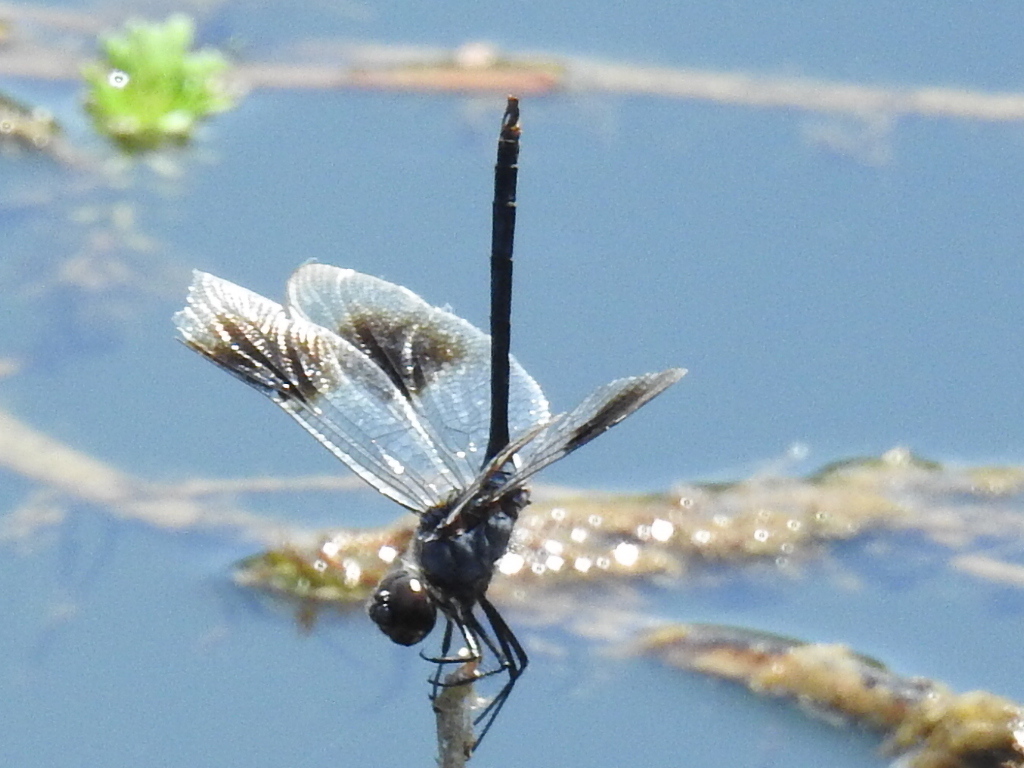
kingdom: Animalia
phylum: Arthropoda
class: Insecta
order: Odonata
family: Libellulidae
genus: Brachymesia
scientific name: Brachymesia gravida
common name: Four-spotted pennant
